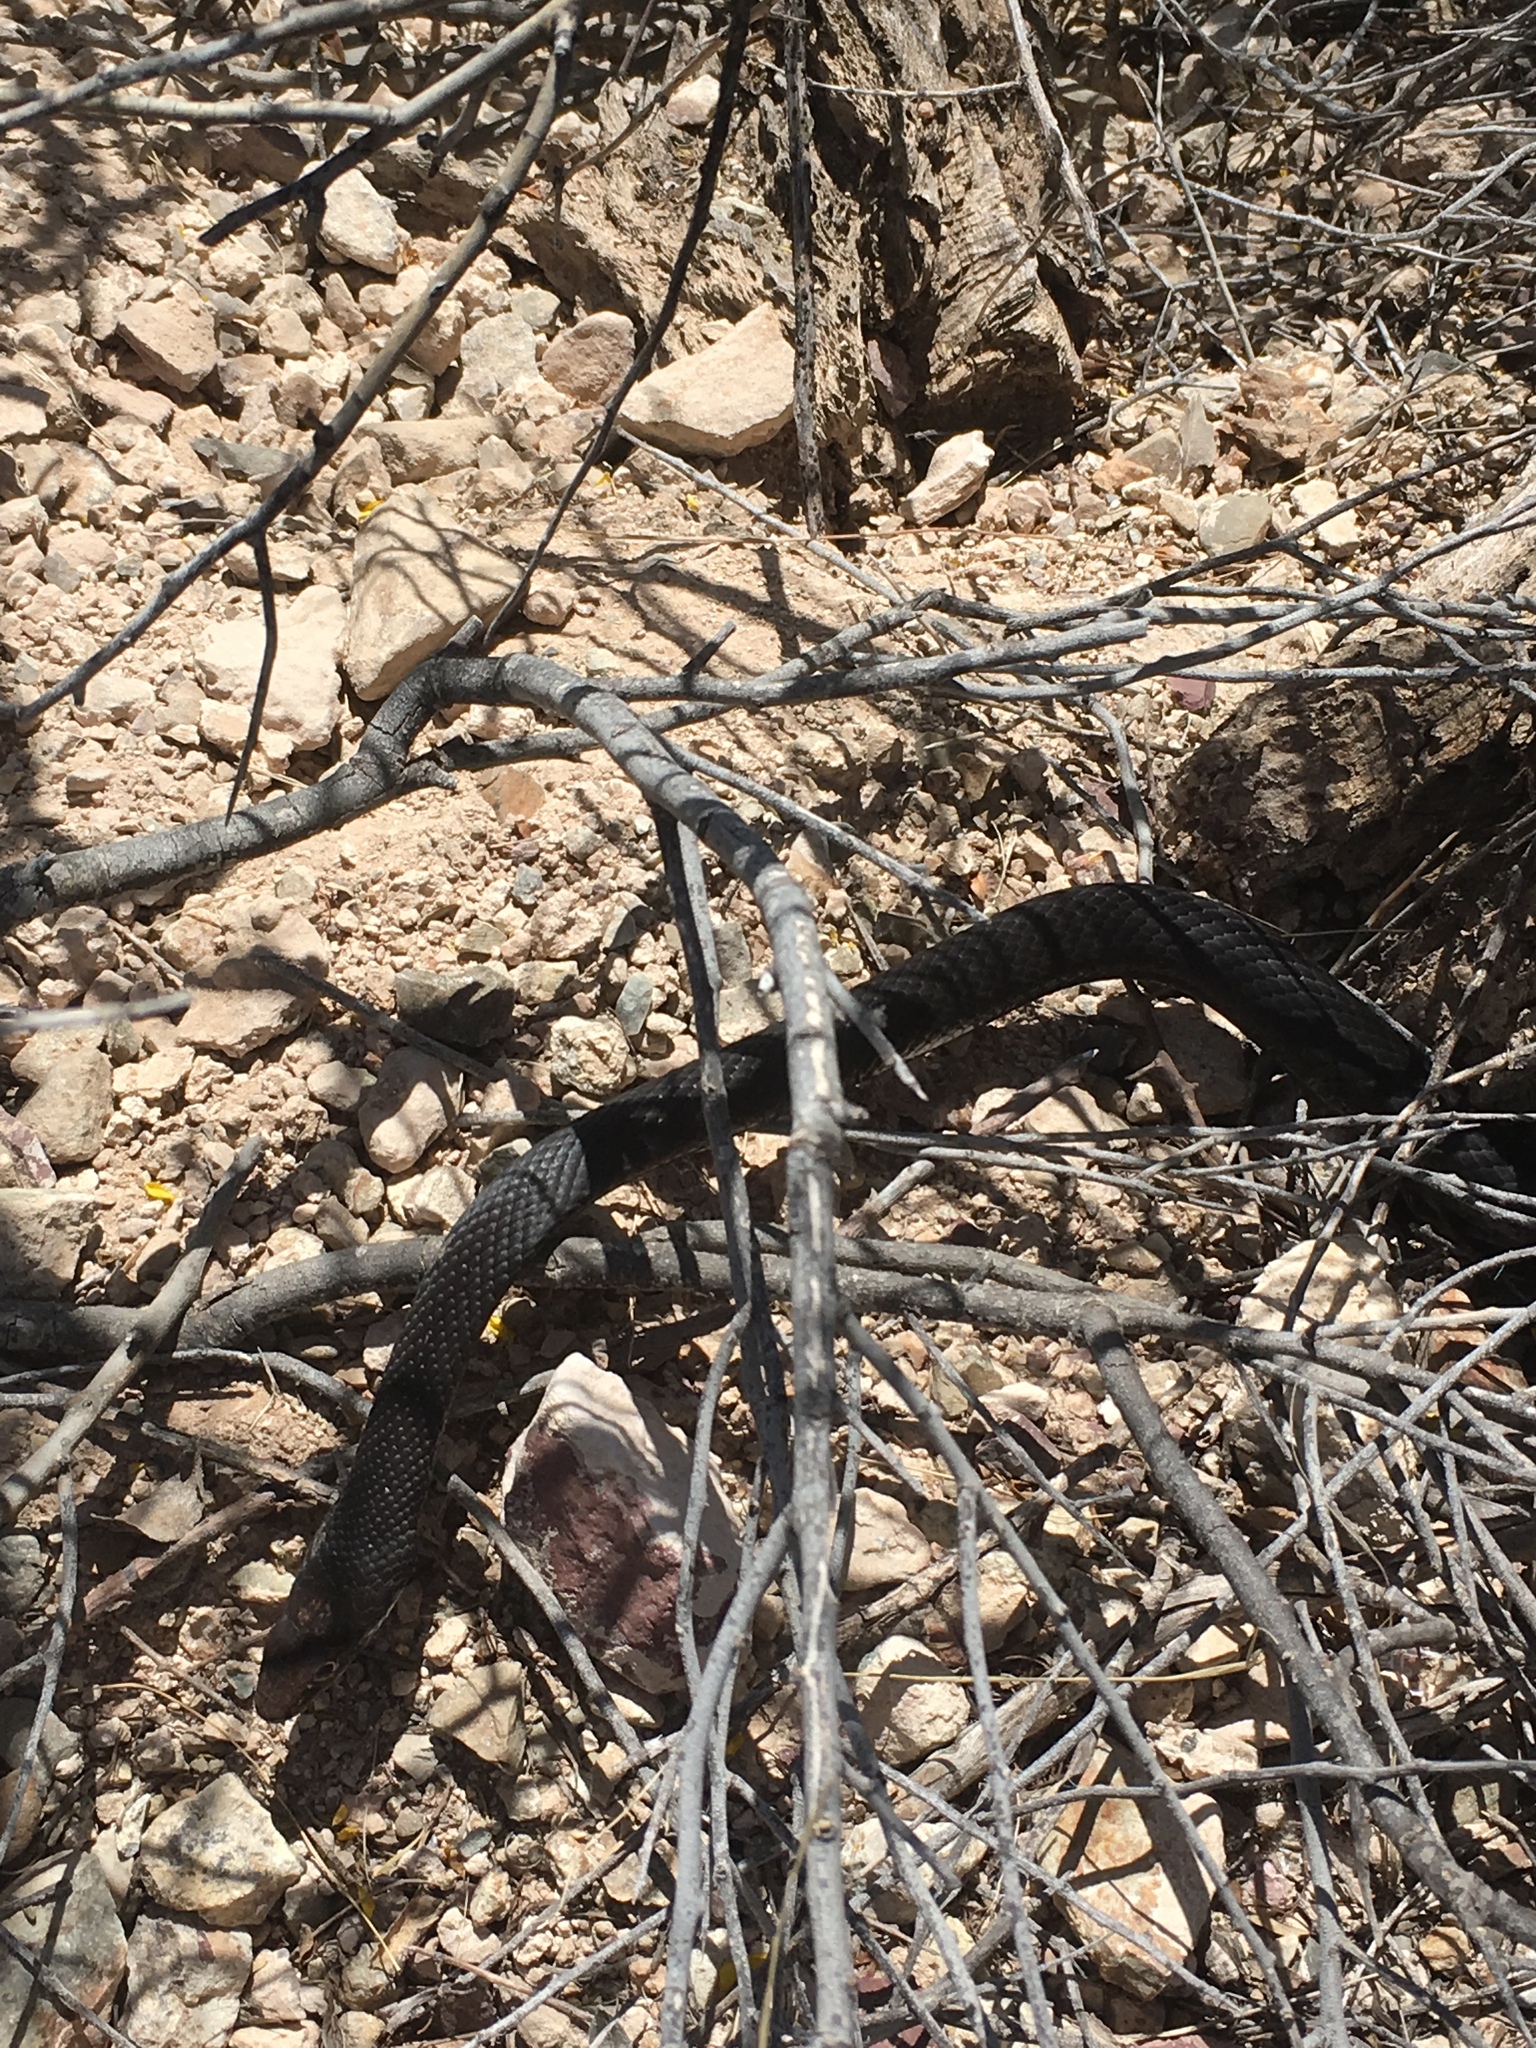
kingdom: Animalia
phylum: Chordata
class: Squamata
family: Colubridae
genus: Masticophis
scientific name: Masticophis flagellum
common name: Coachwhip
